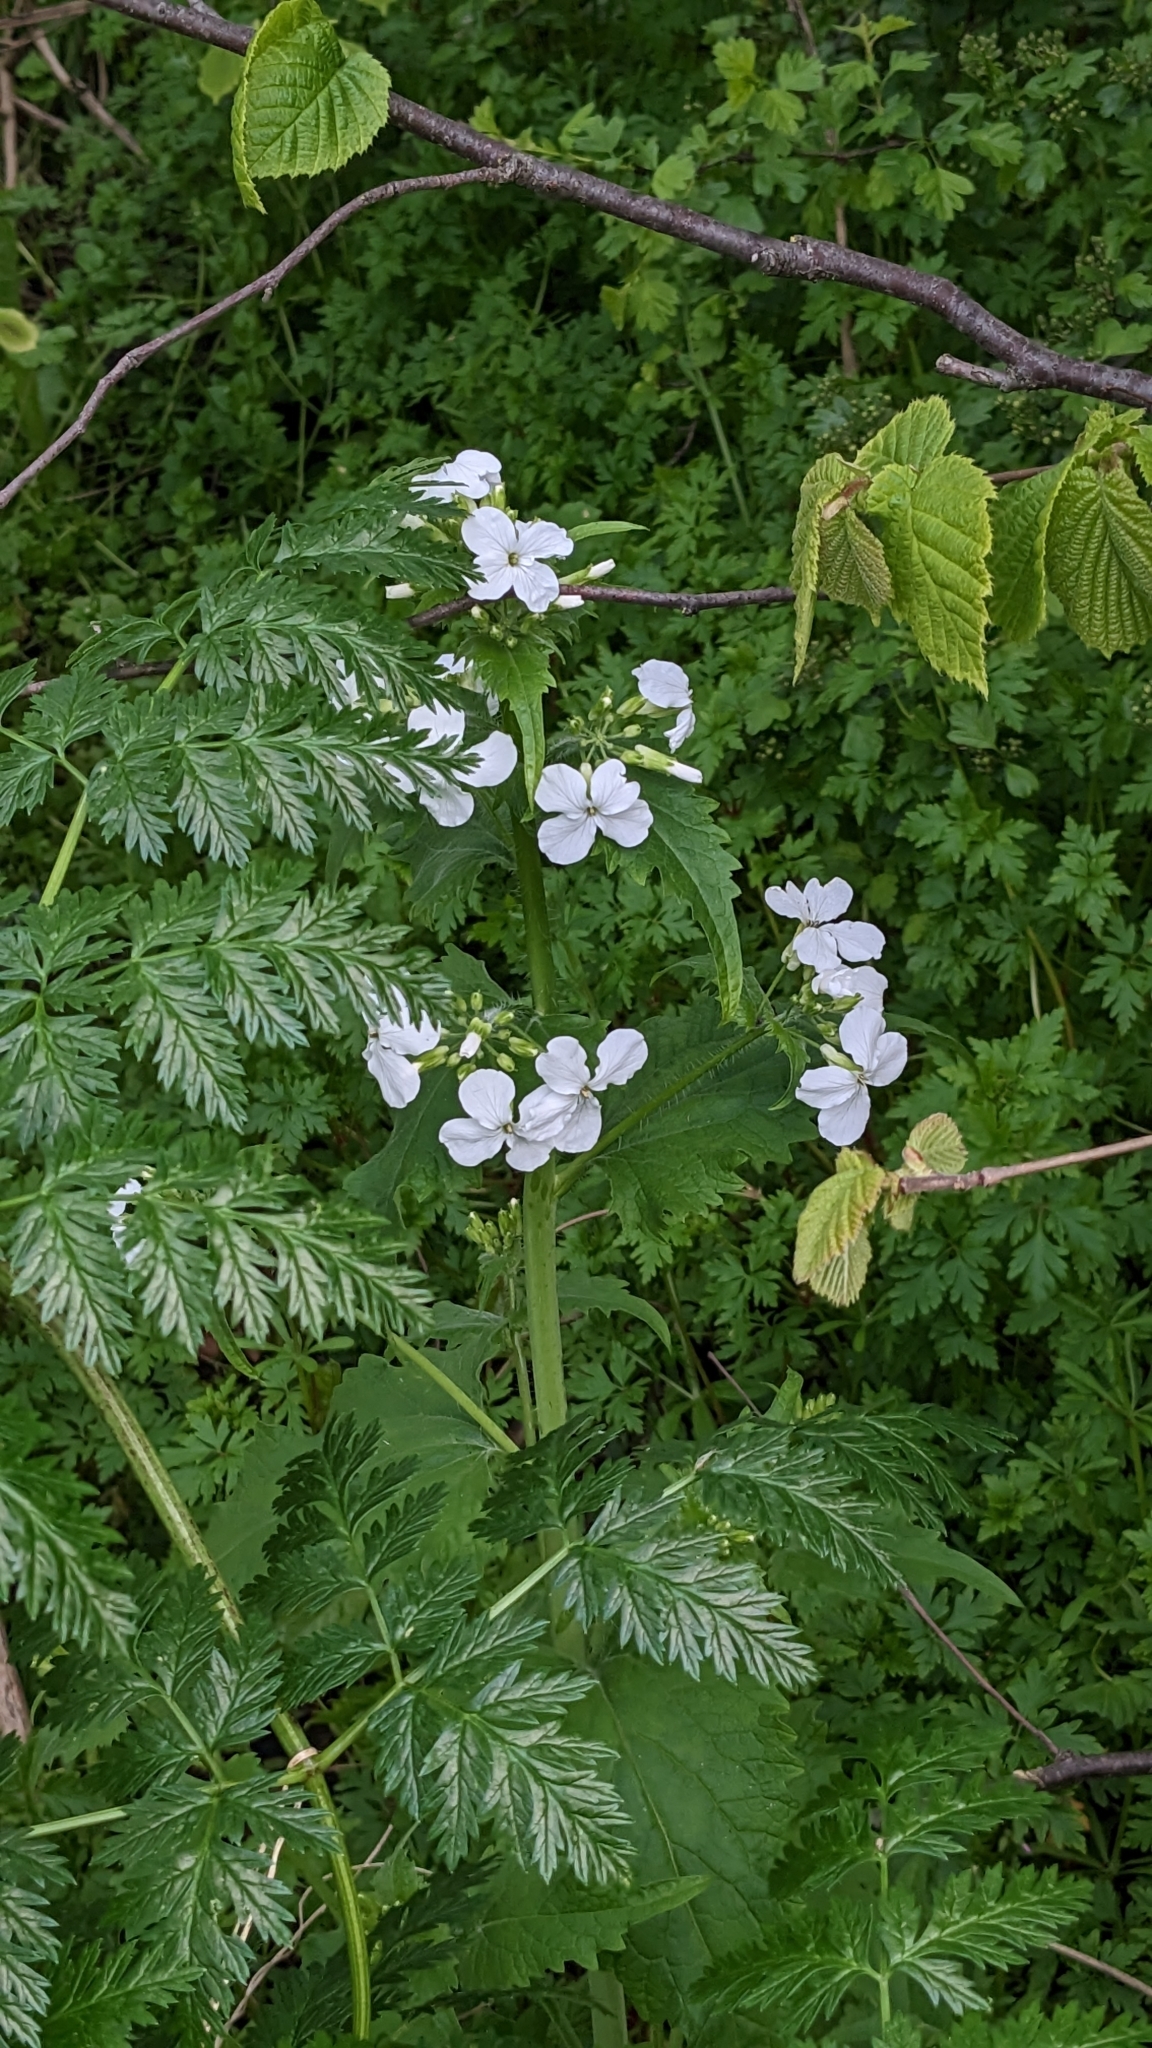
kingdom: Plantae
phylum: Tracheophyta
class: Magnoliopsida
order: Brassicales
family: Brassicaceae
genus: Lunaria
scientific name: Lunaria annua
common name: Honesty
